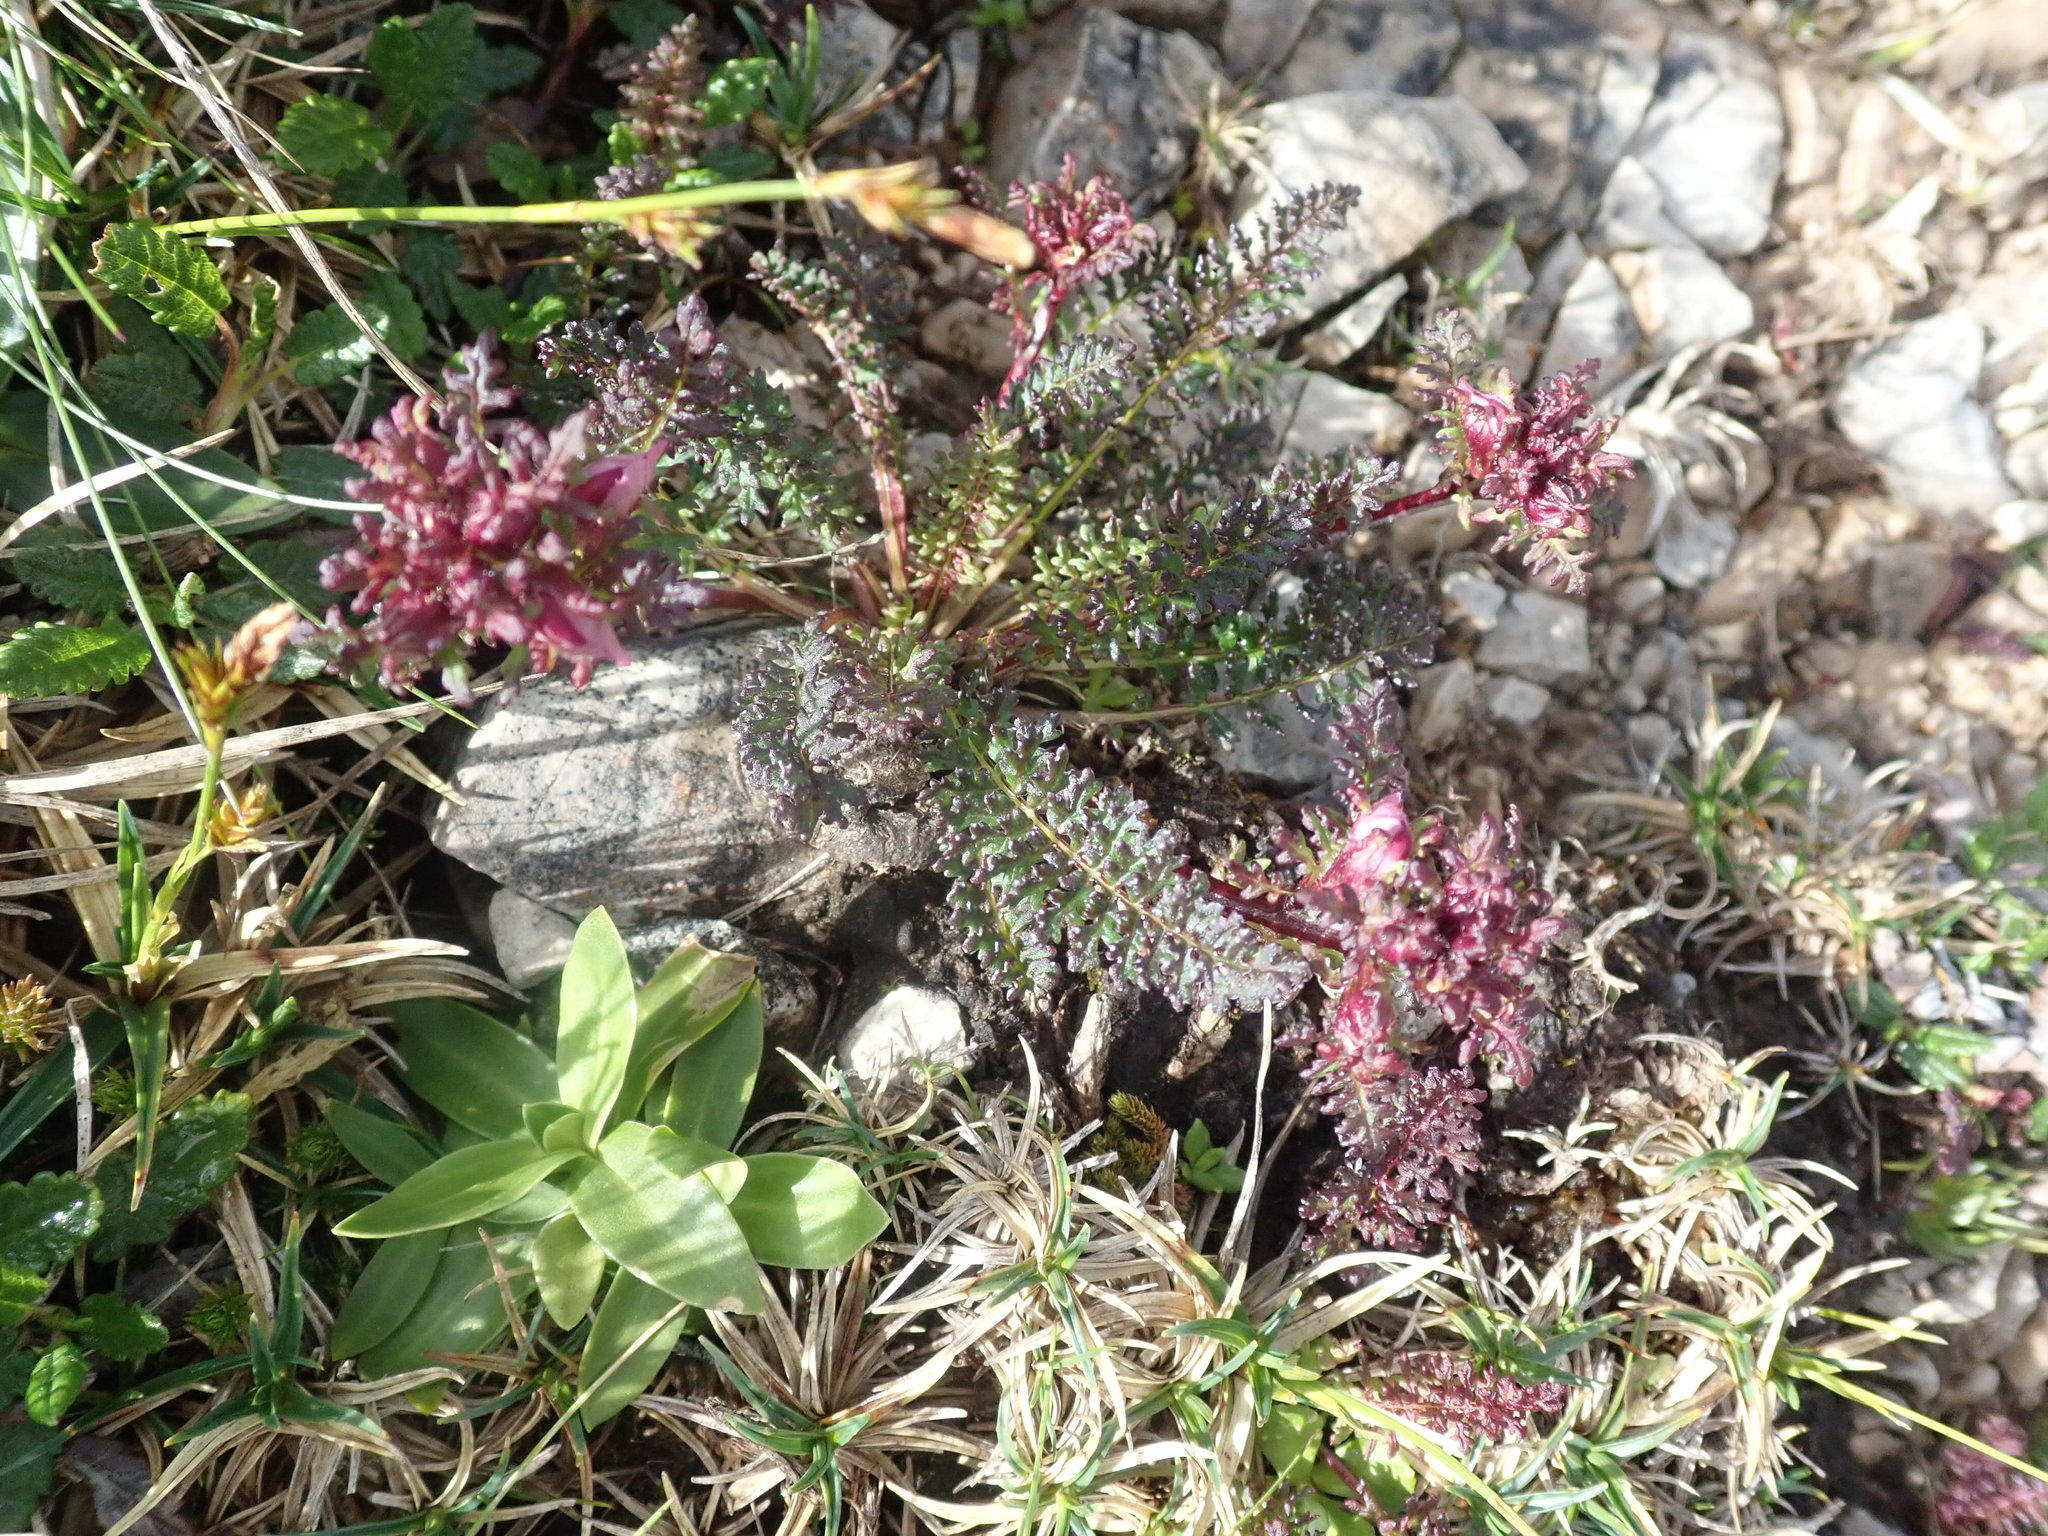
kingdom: Plantae
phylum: Tracheophyta
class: Magnoliopsida
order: Lamiales
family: Orobanchaceae
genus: Pedicularis
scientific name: Pedicularis rostratocapitata
